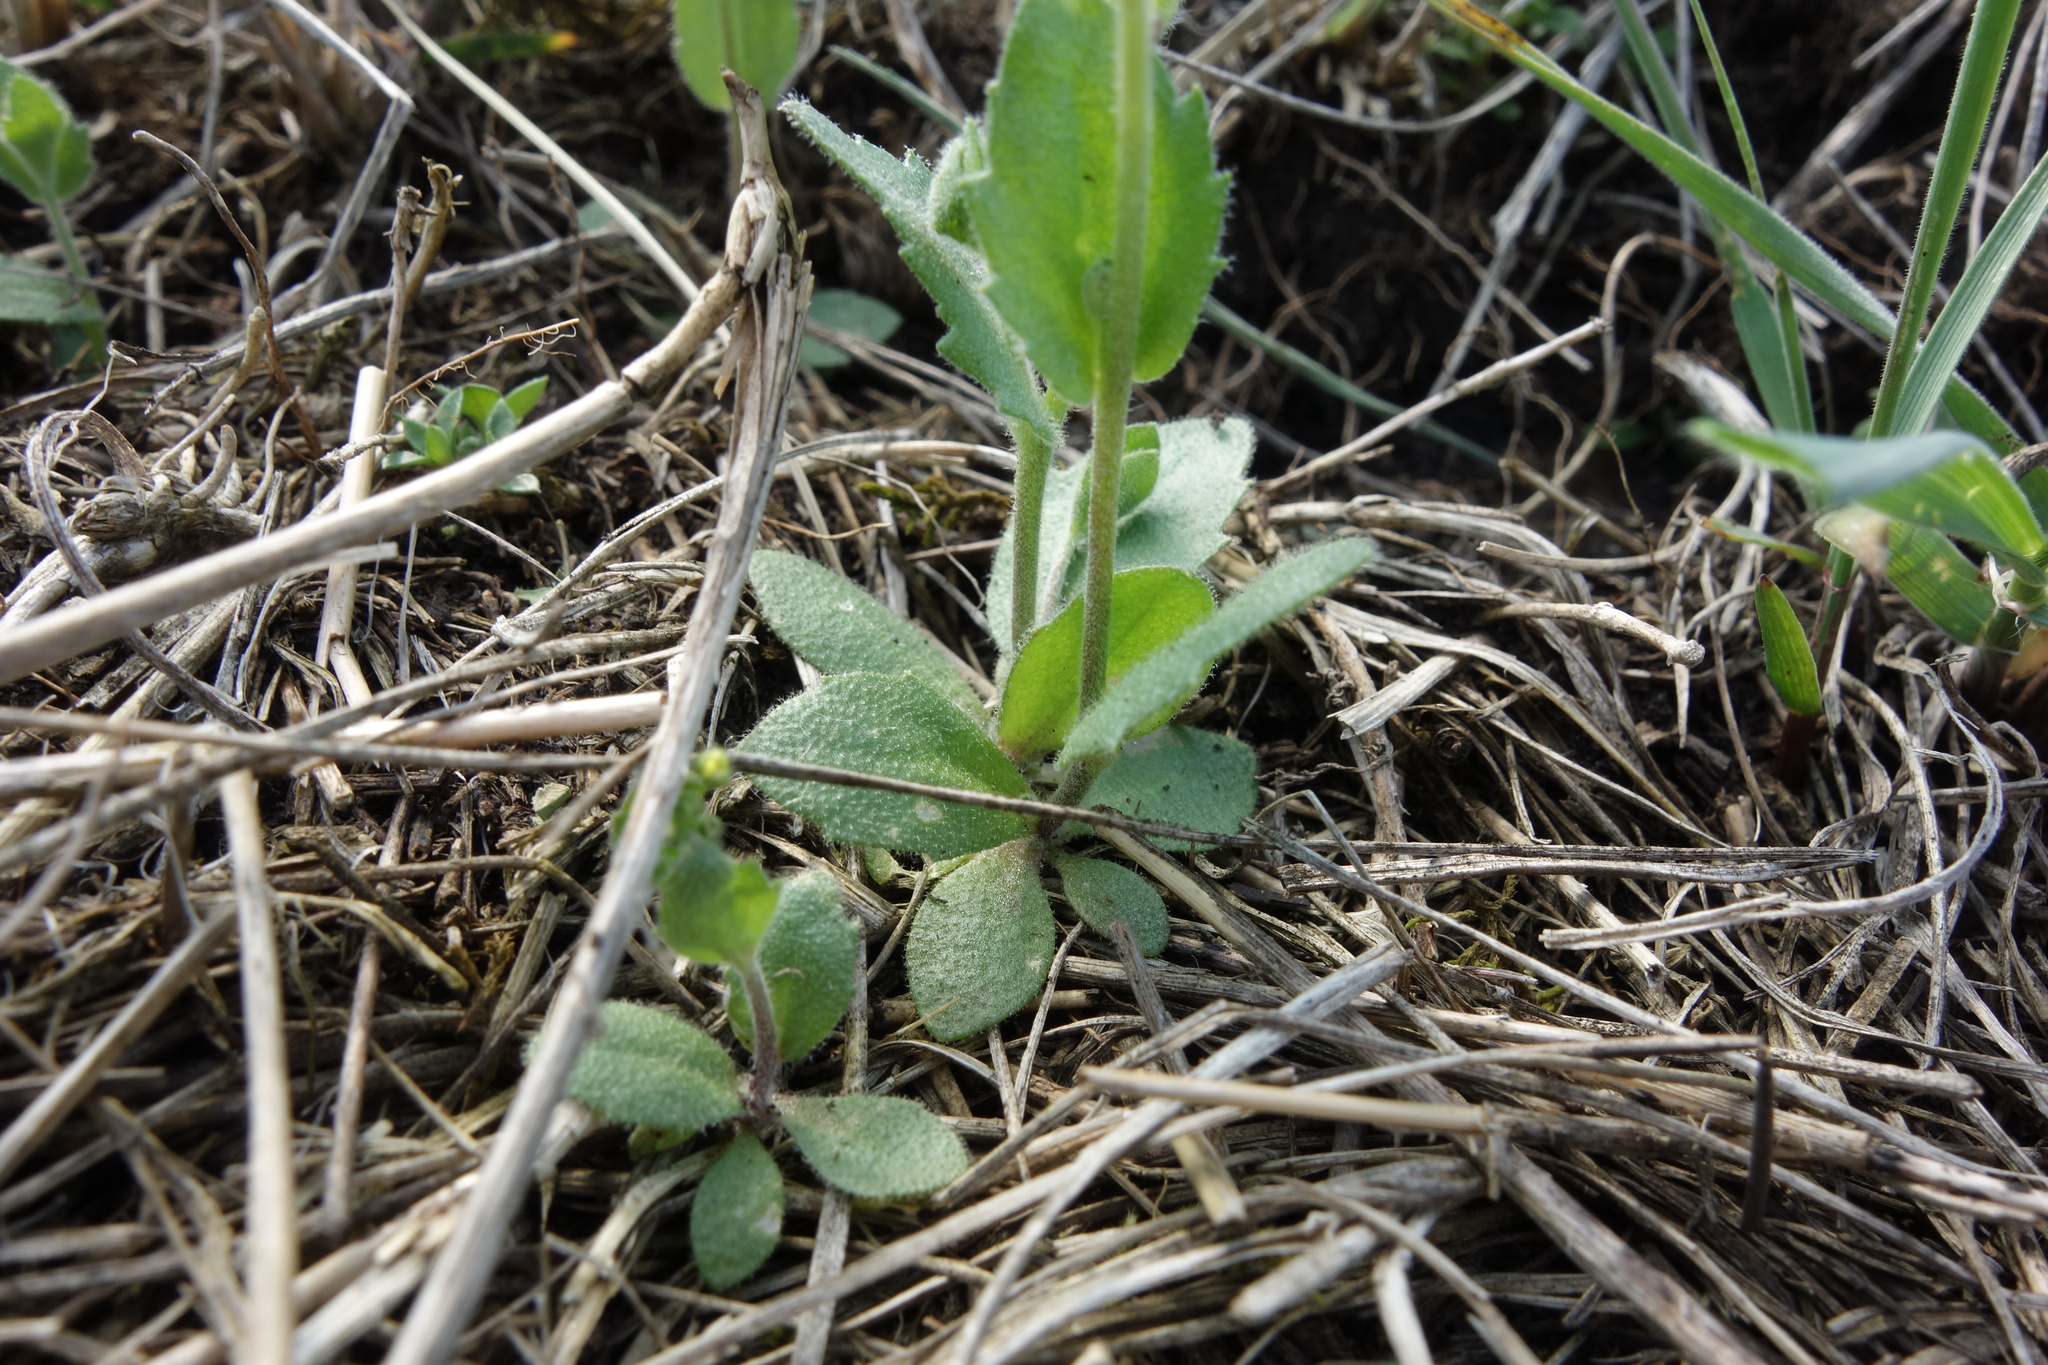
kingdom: Plantae
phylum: Tracheophyta
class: Magnoliopsida
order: Brassicales
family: Brassicaceae
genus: Draba
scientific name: Draba nemorosa
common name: Wood whitlow-grass
